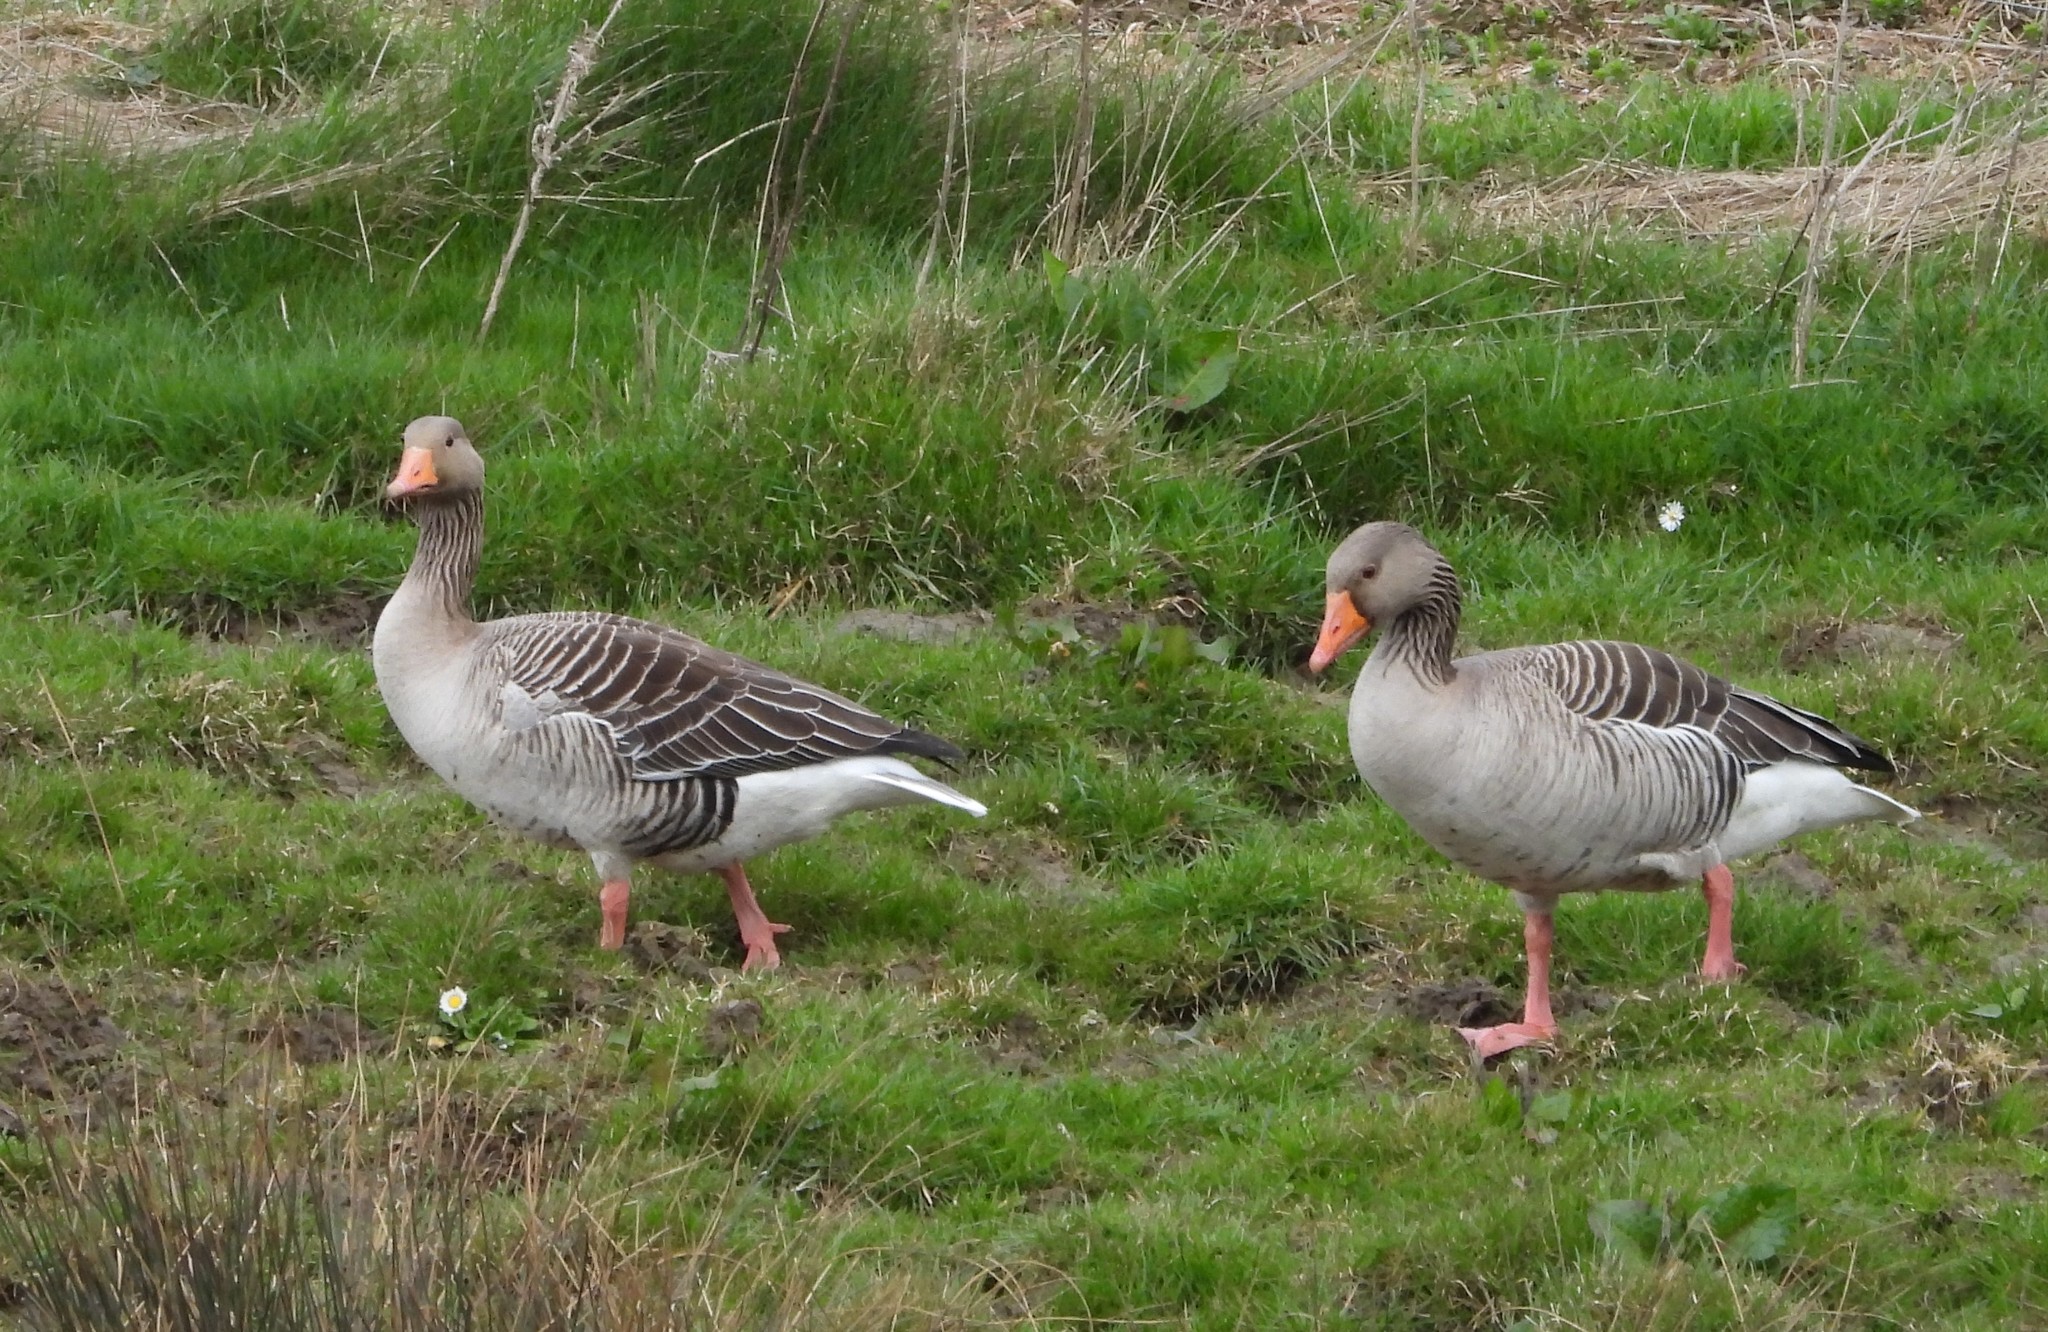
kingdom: Animalia
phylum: Chordata
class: Aves
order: Anseriformes
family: Anatidae
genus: Anser
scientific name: Anser anser
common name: Greylag goose
